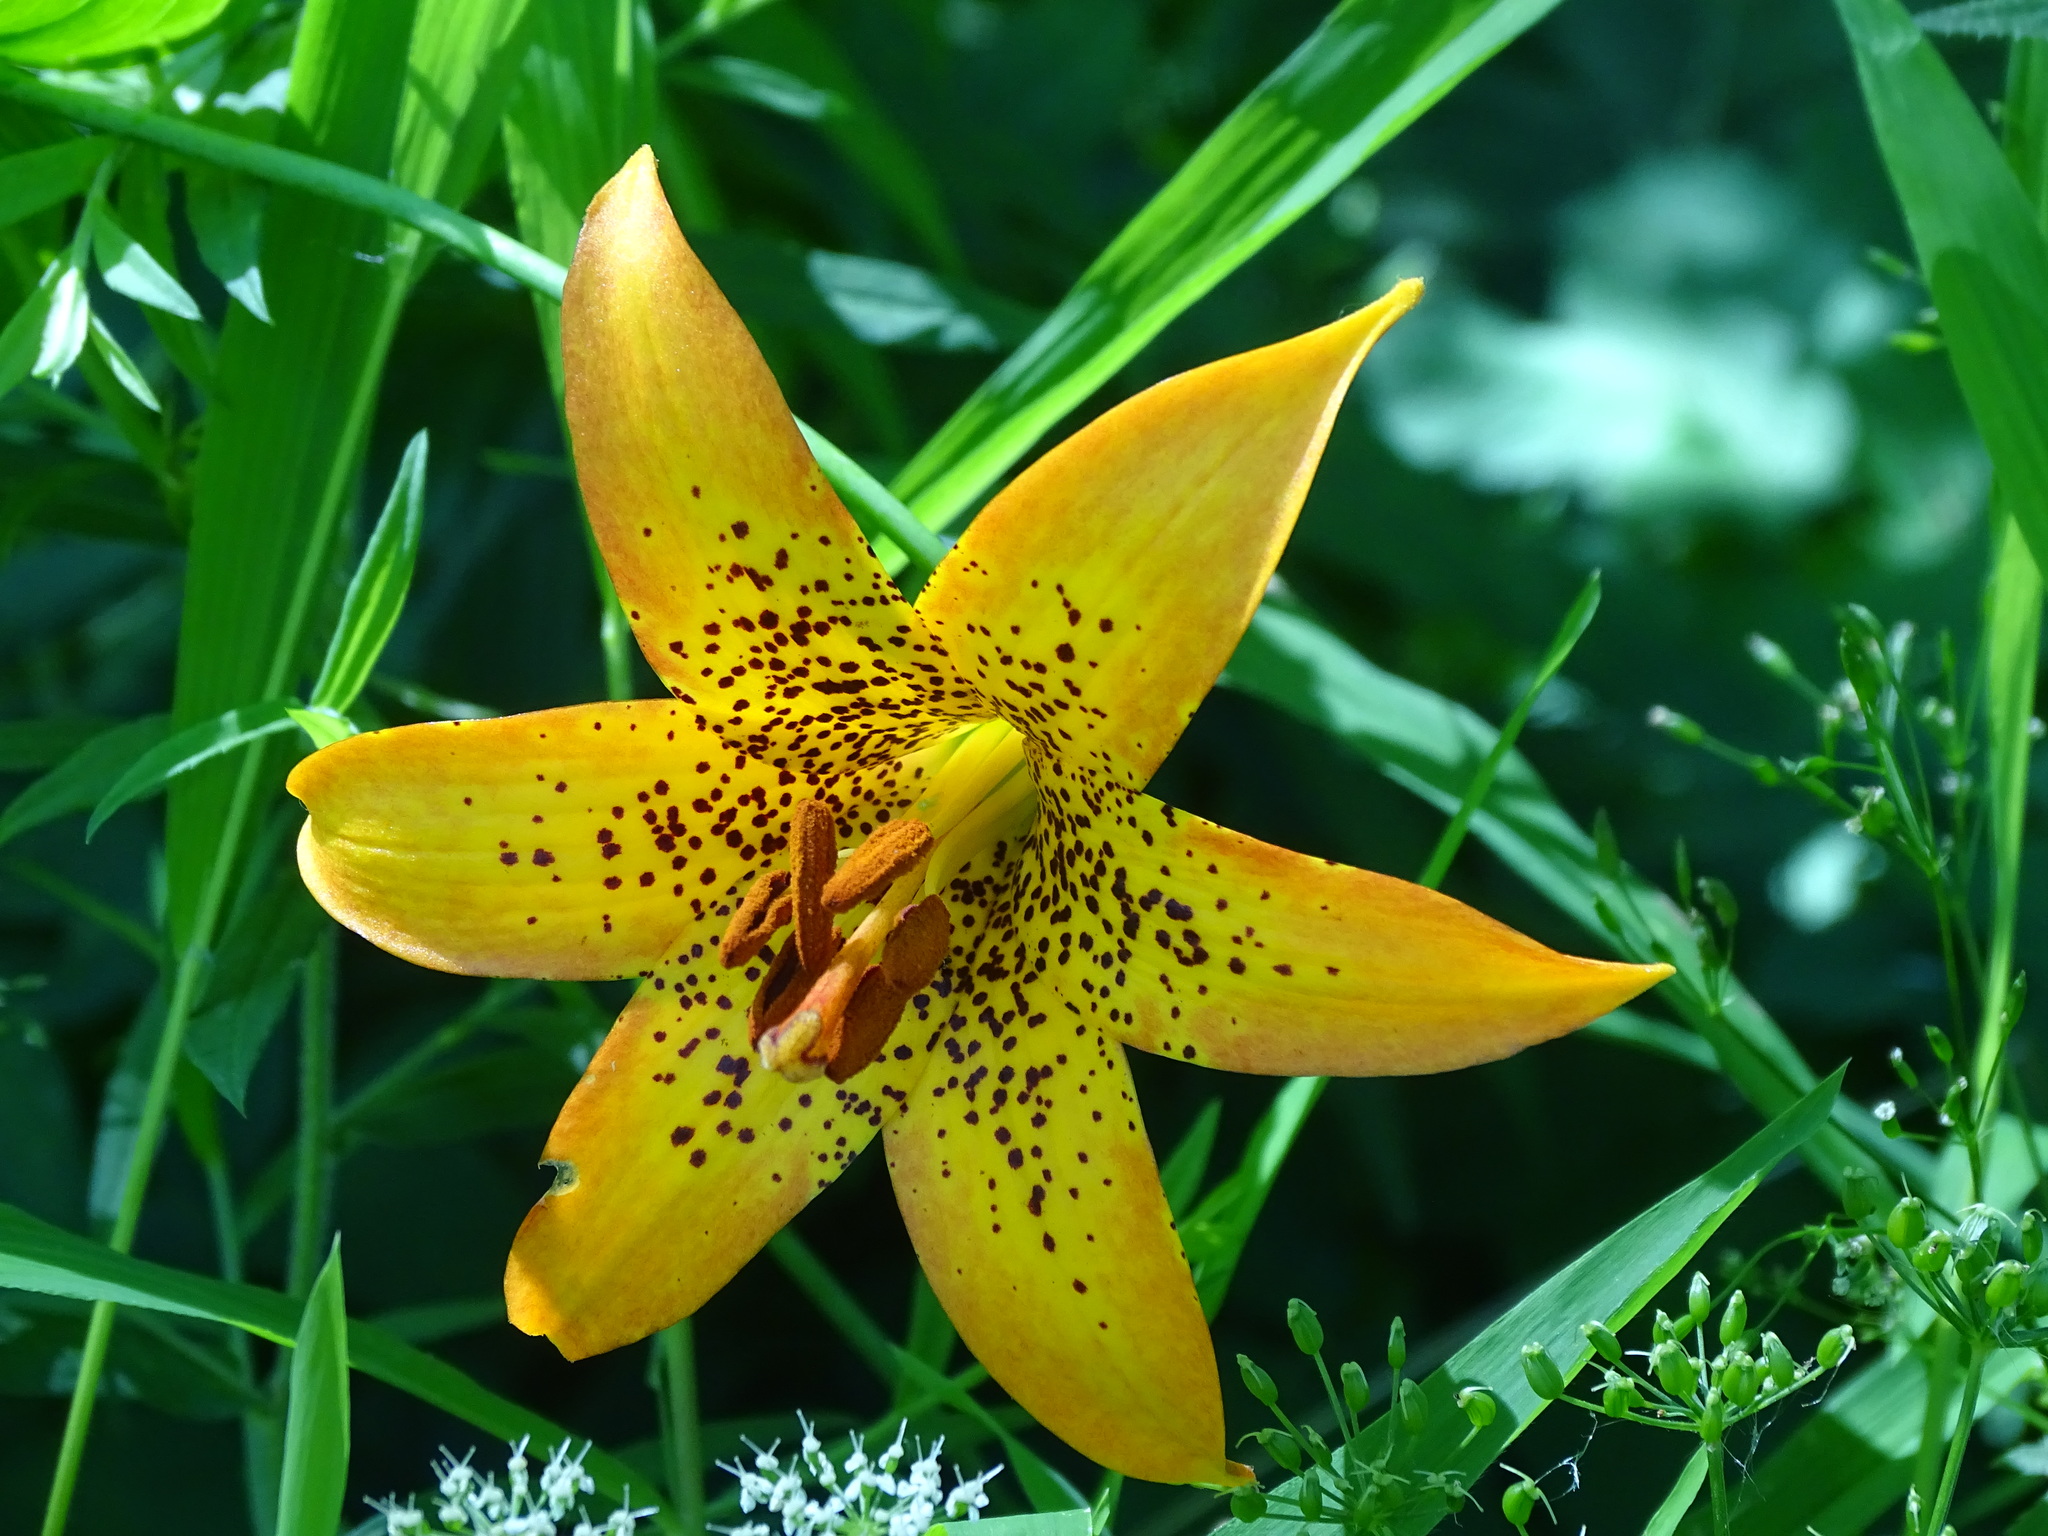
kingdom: Plantae
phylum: Tracheophyta
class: Liliopsida
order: Liliales
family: Liliaceae
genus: Lilium
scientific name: Lilium canadense
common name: Canada lily
